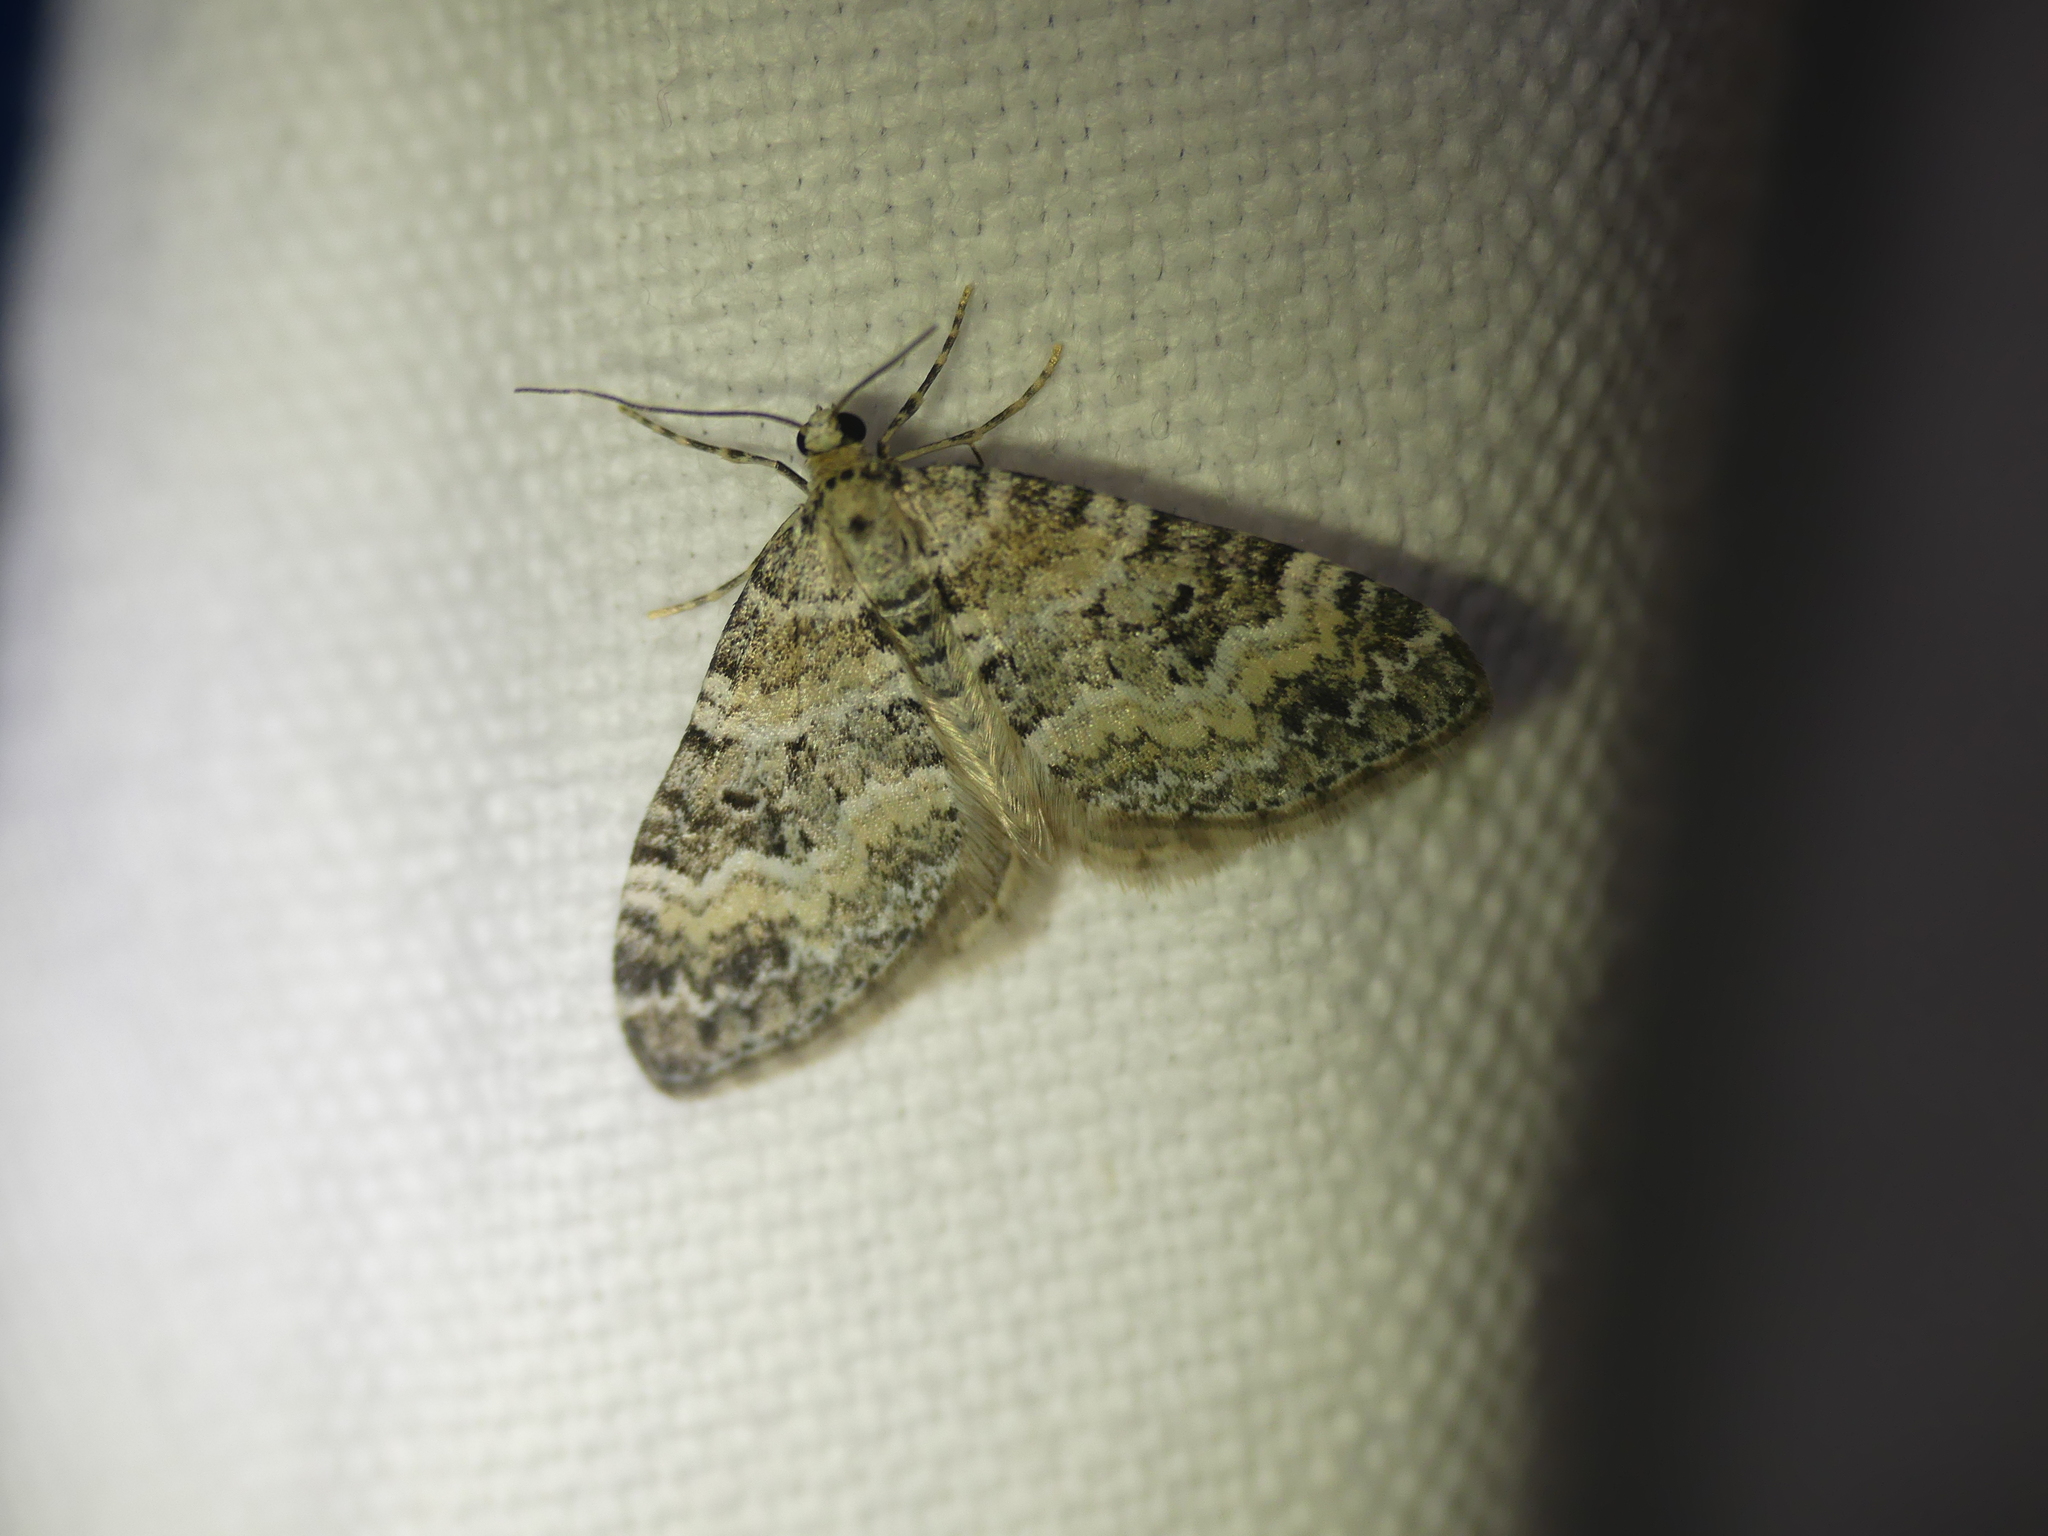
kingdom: Animalia
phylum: Arthropoda
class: Insecta
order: Lepidoptera
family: Geometridae
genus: Perizoma
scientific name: Perizoma minorata
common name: Heath rivulet
